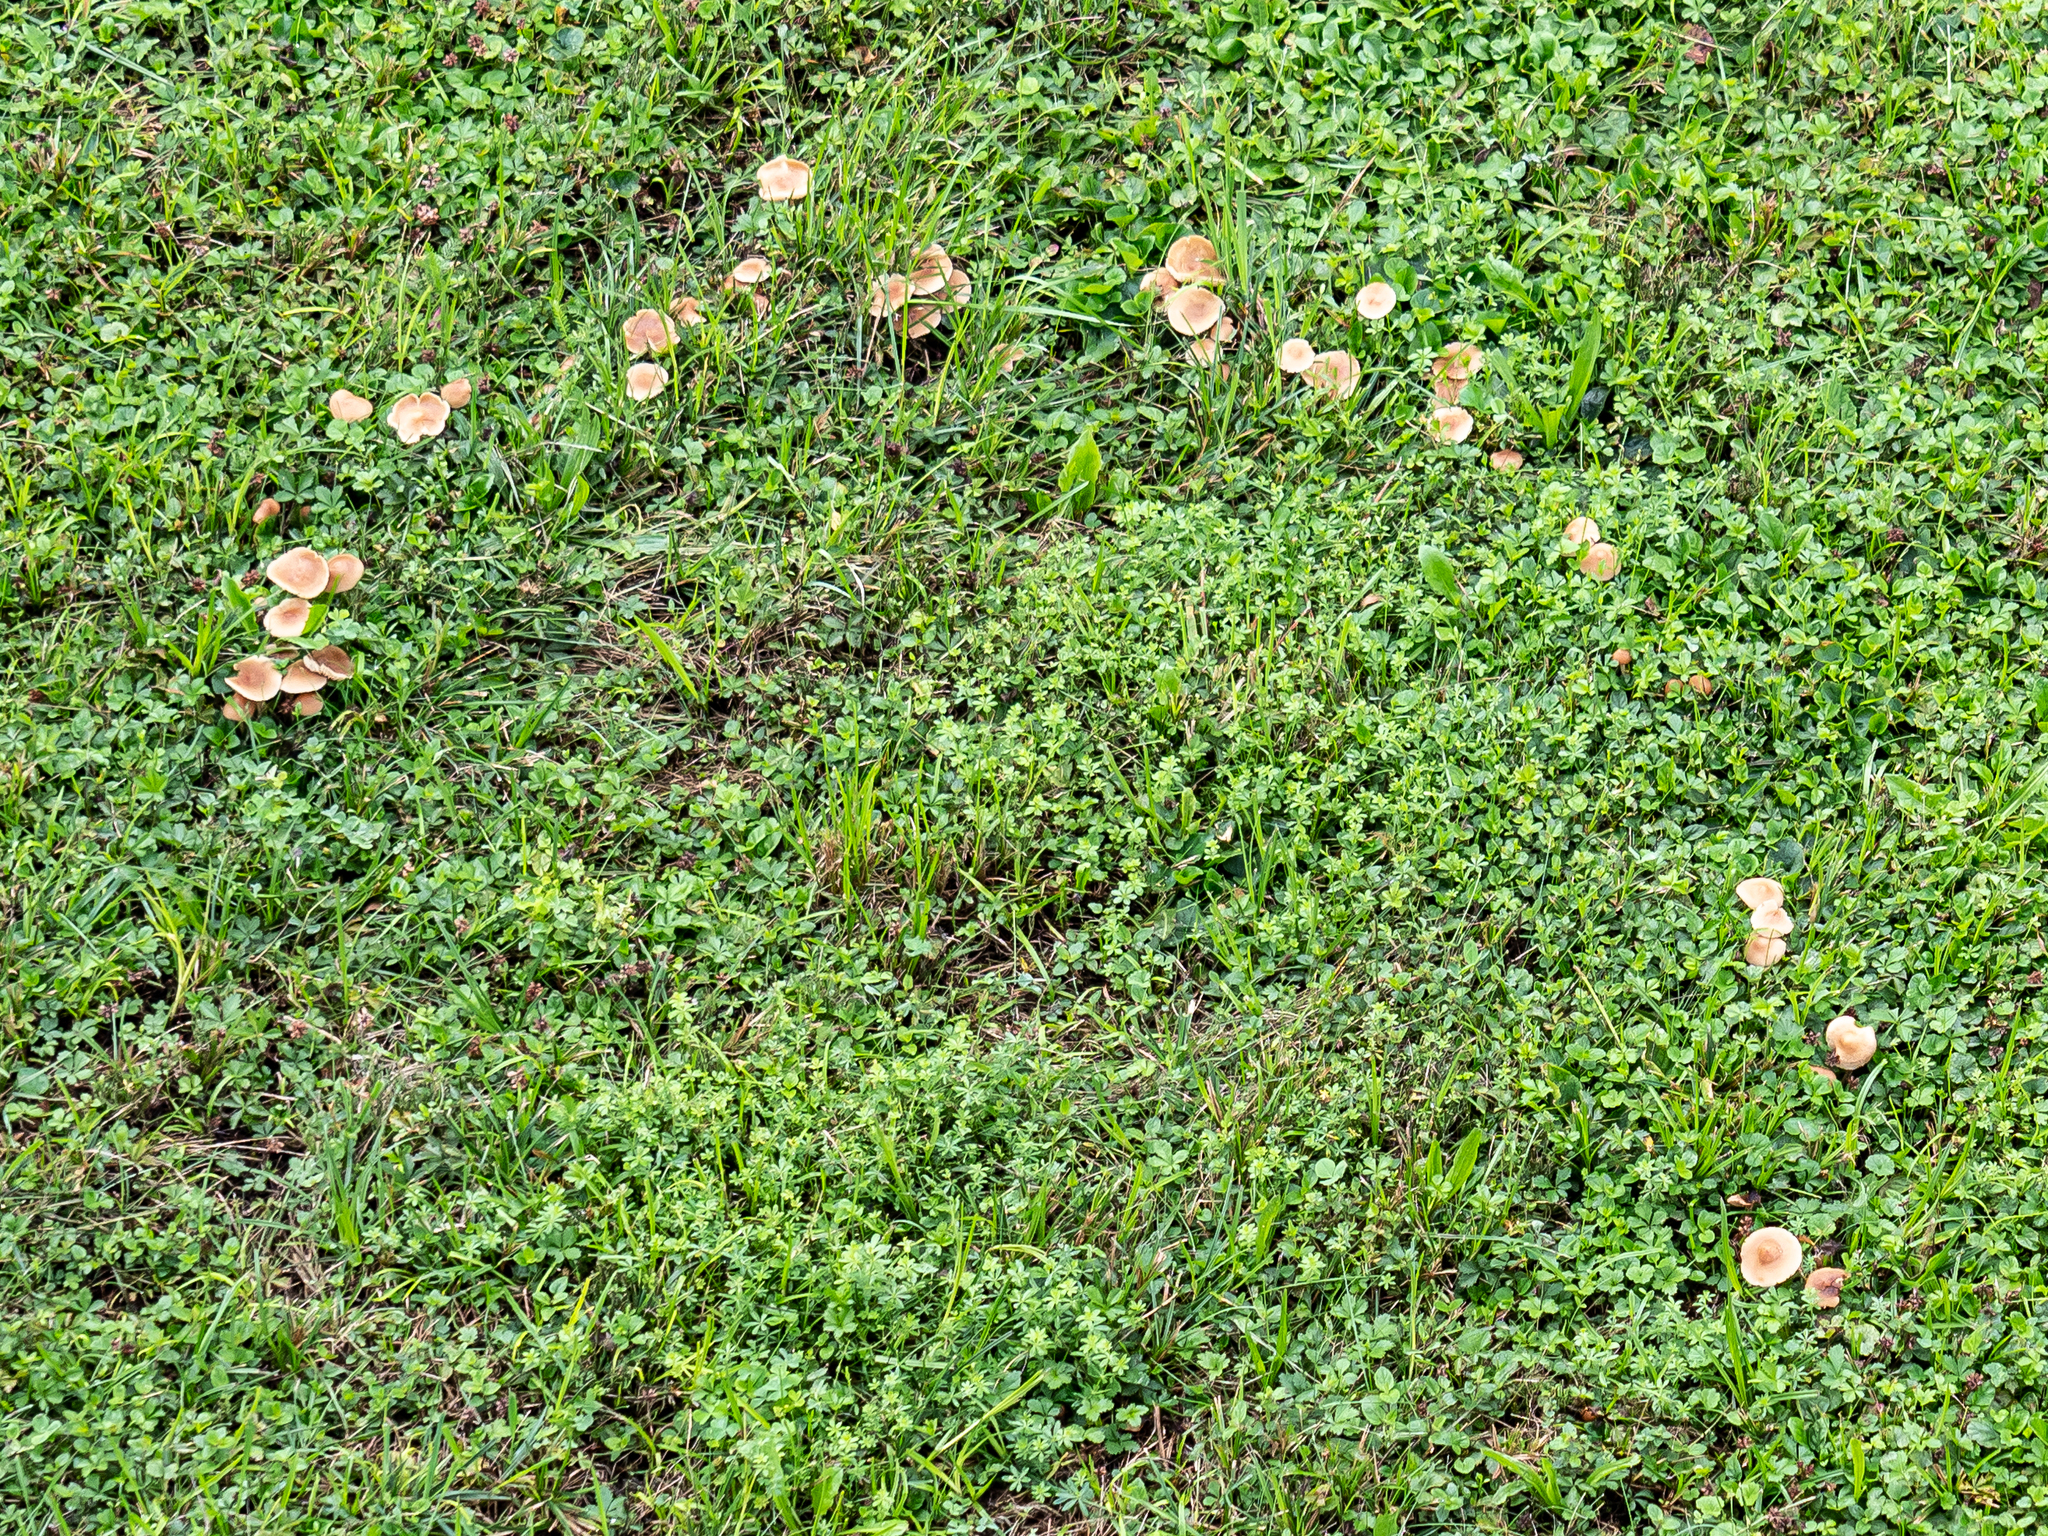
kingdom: Fungi
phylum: Basidiomycota
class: Agaricomycetes
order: Agaricales
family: Marasmiaceae
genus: Marasmius
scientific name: Marasmius oreades
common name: Fairy ring champignon
